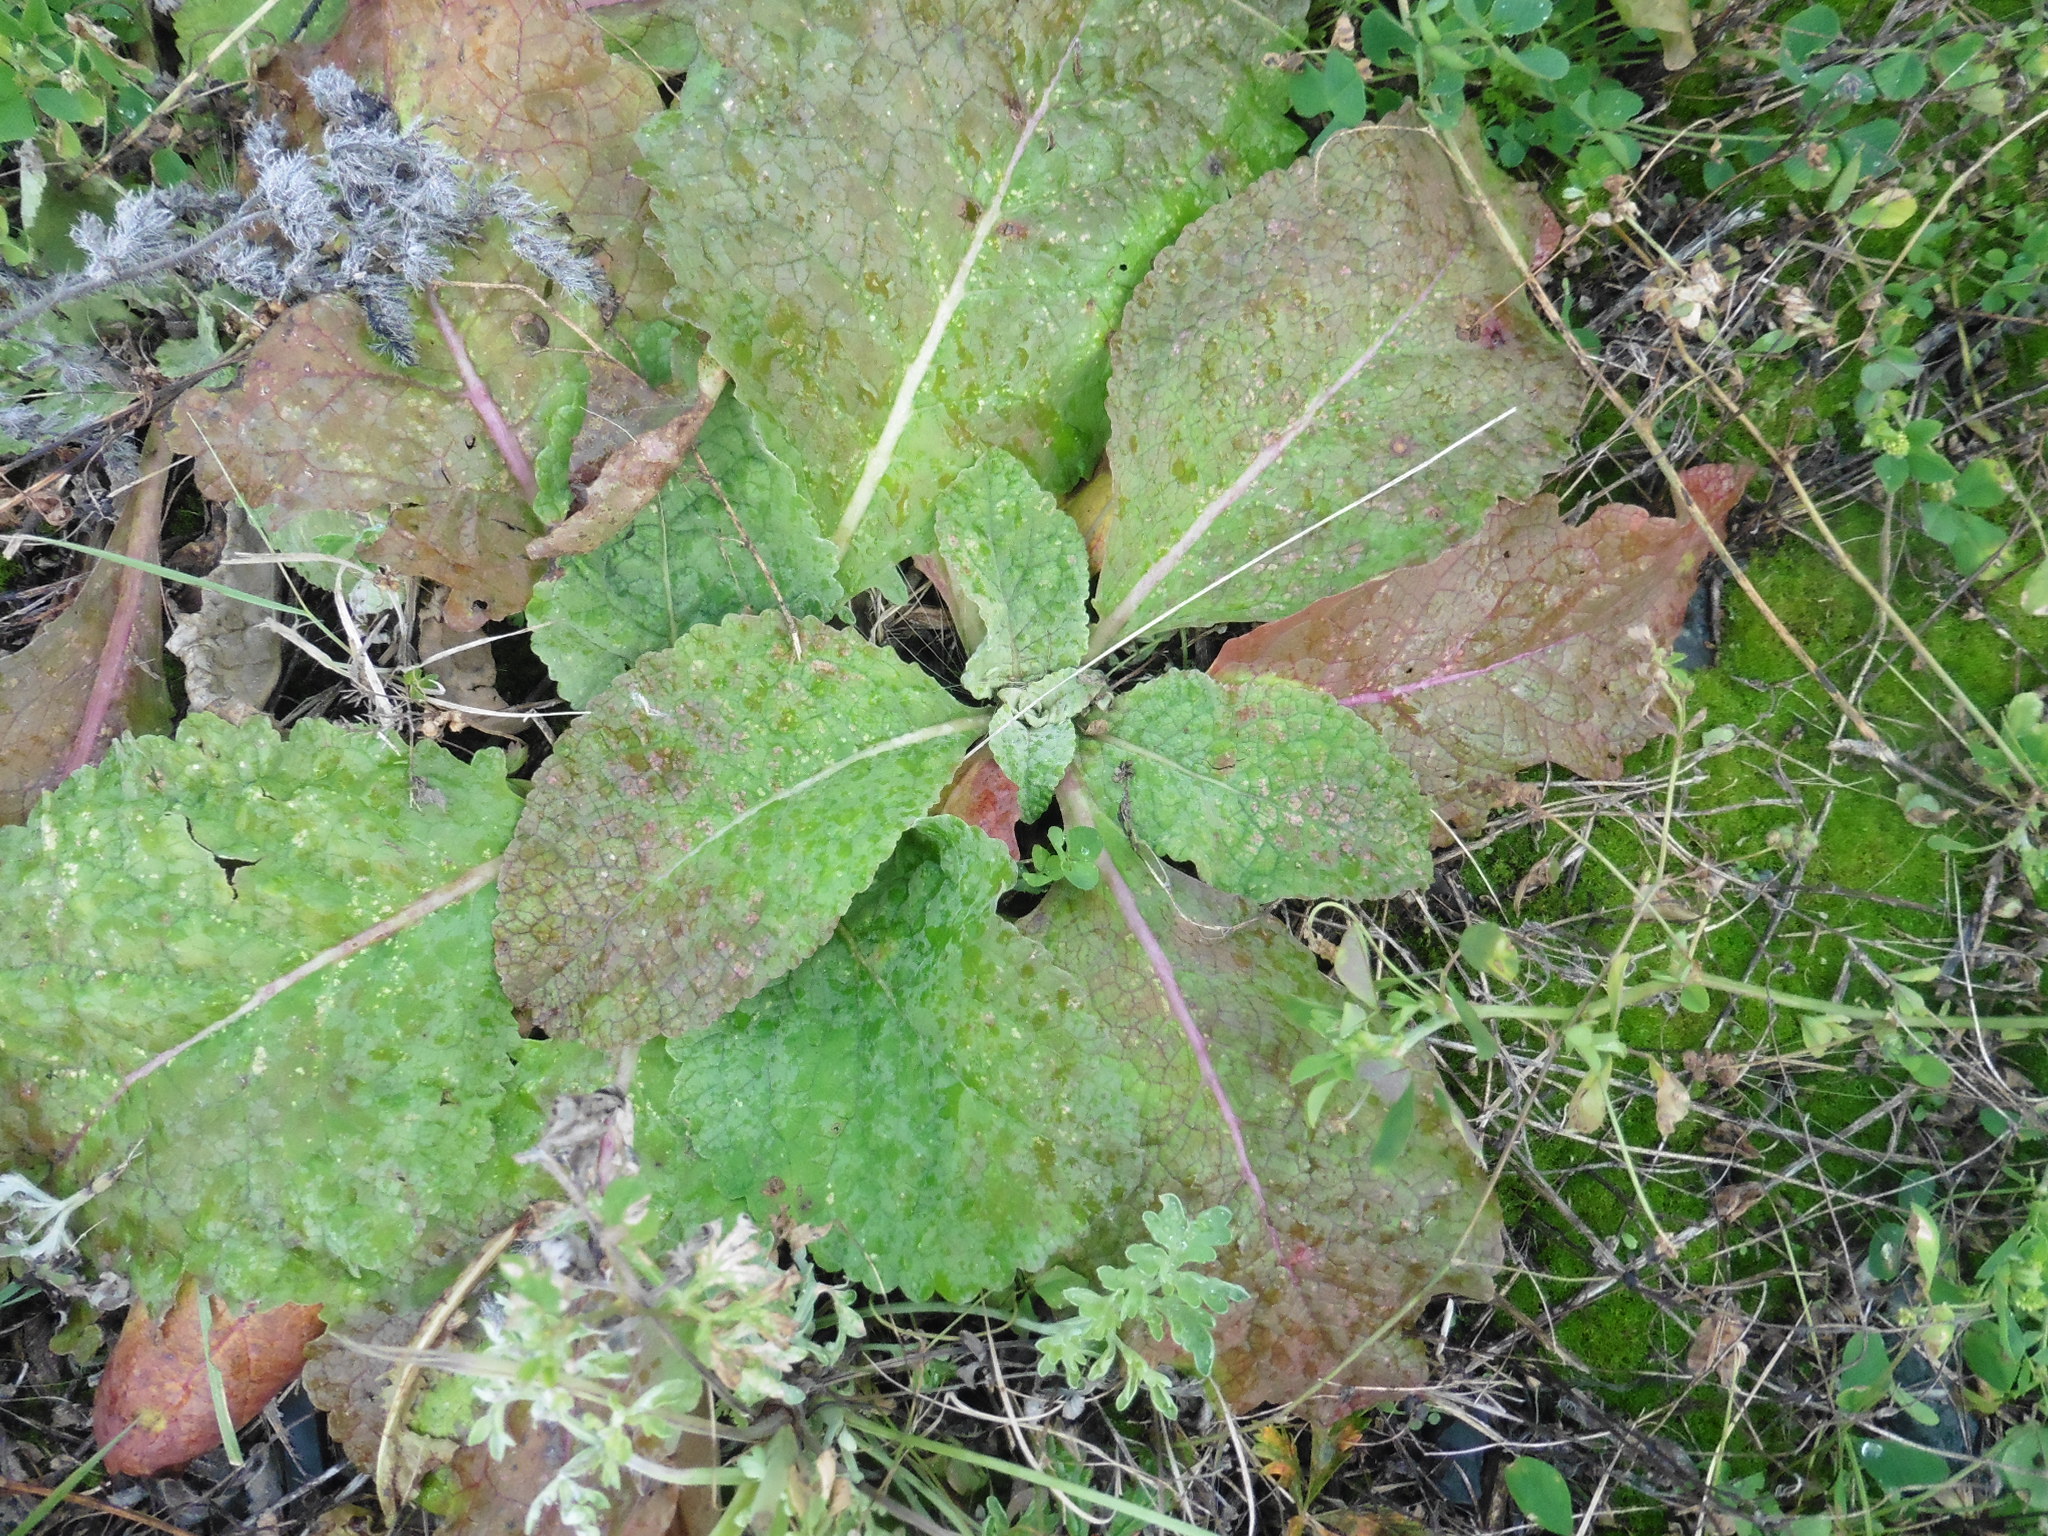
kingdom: Plantae
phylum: Tracheophyta
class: Magnoliopsida
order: Lamiales
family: Scrophulariaceae
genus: Verbascum
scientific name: Verbascum lychnitis
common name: White mullein
